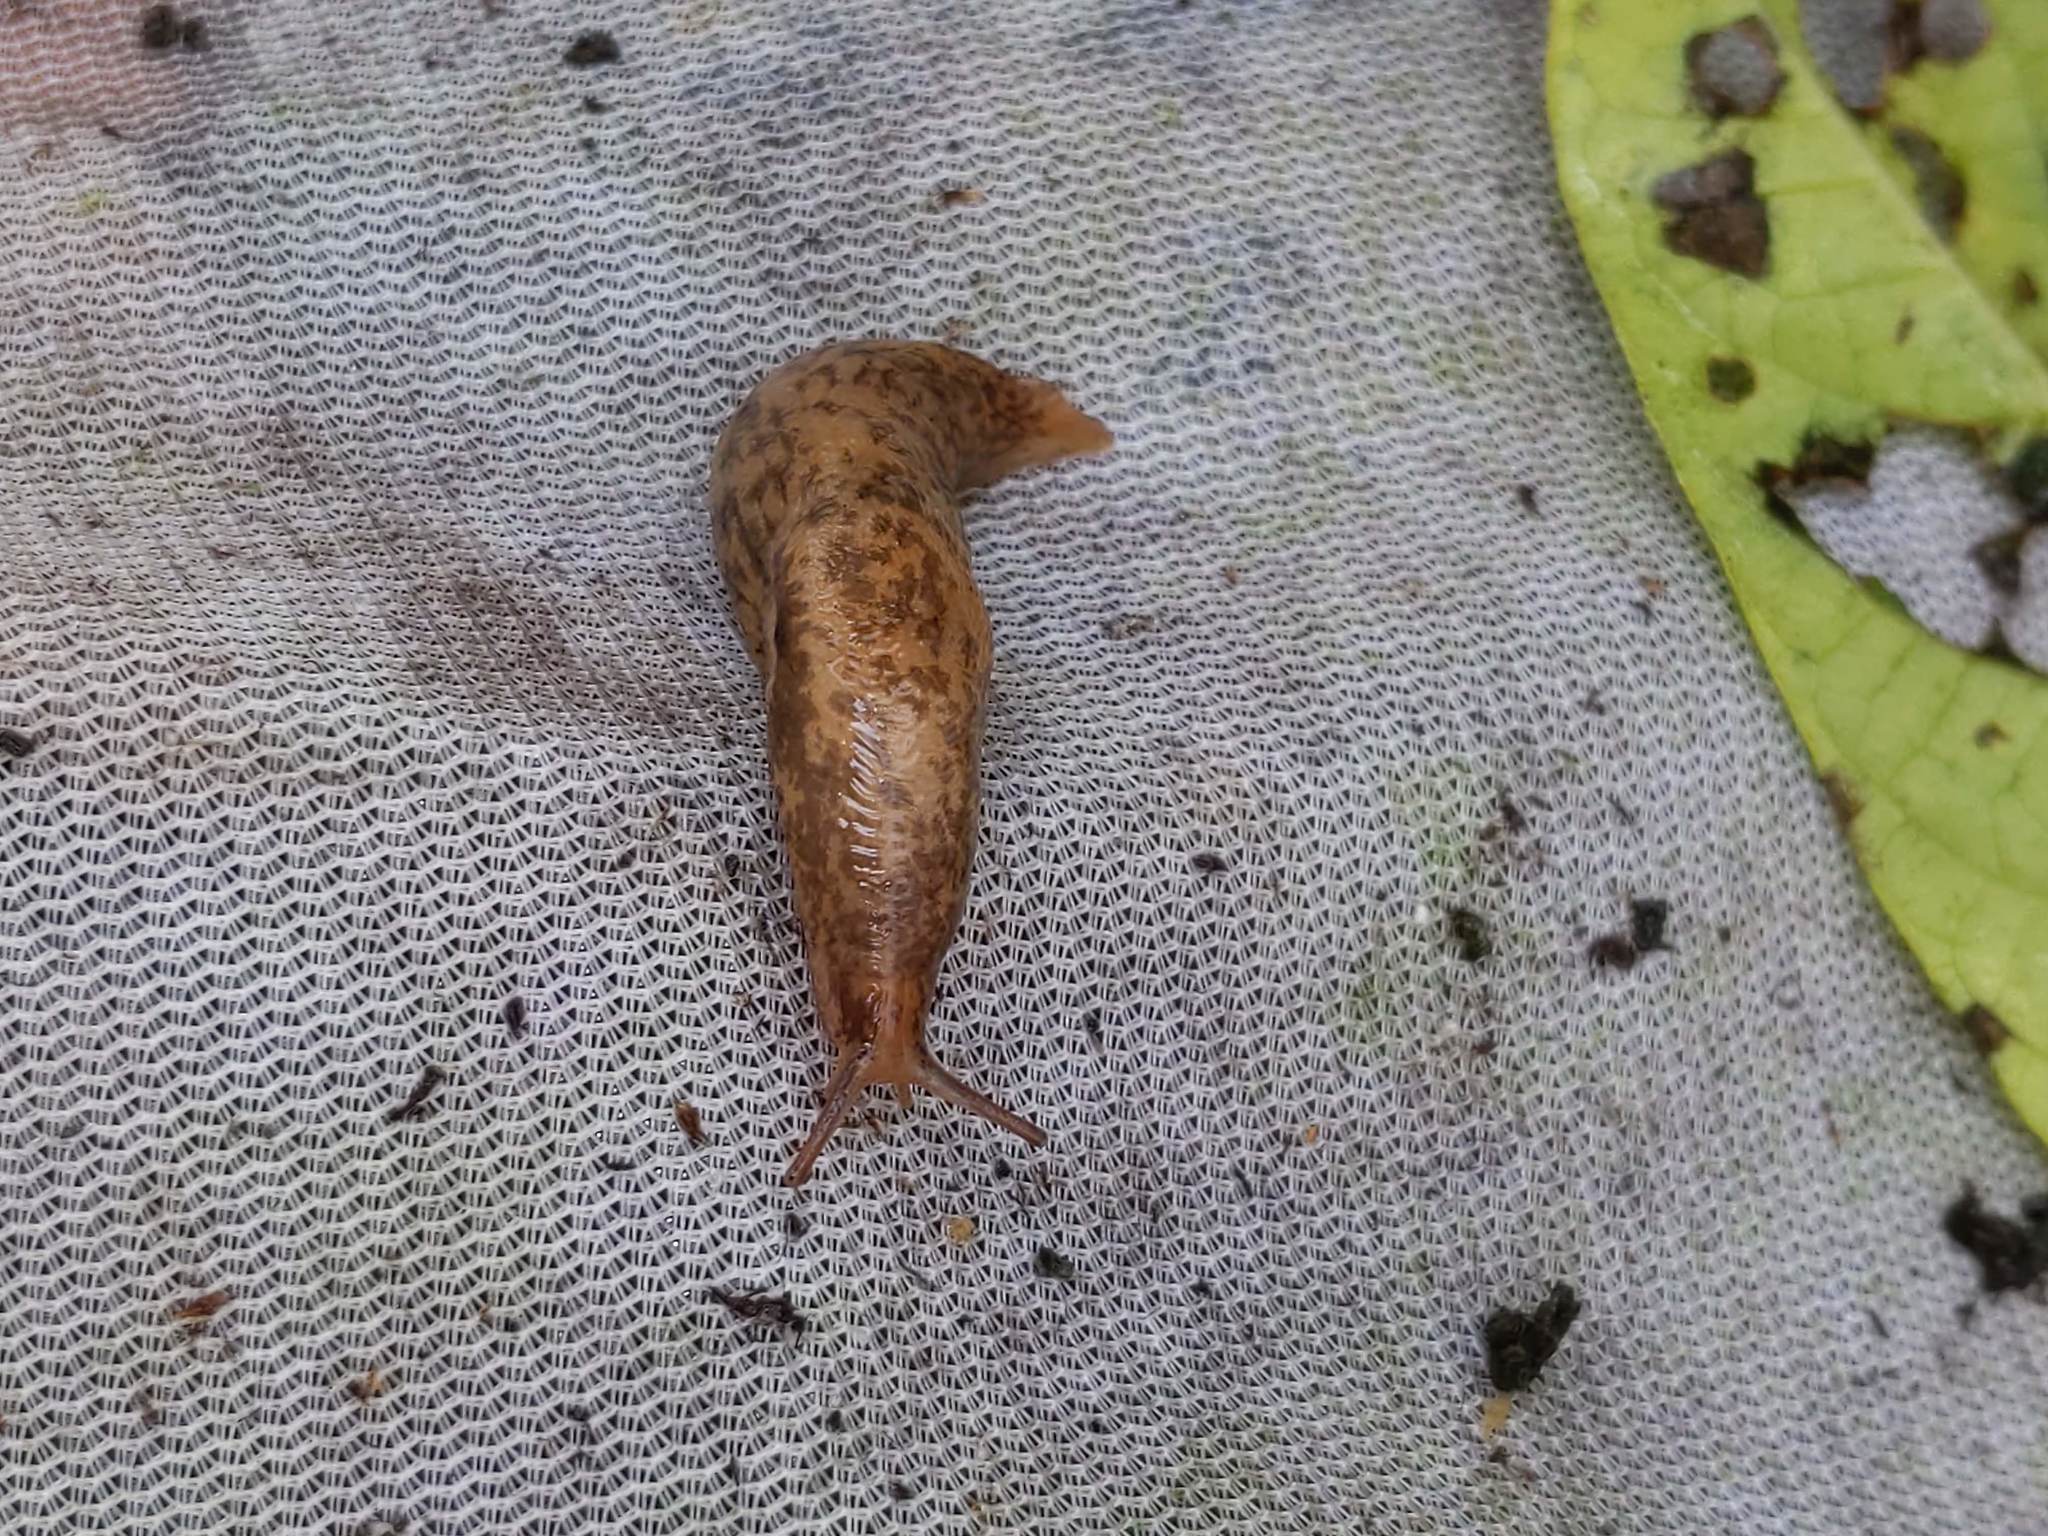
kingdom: Animalia
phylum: Mollusca
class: Gastropoda
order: Stylommatophora
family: Agriolimacidae
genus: Deroceras
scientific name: Deroceras reticulatum
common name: Gray field slug
